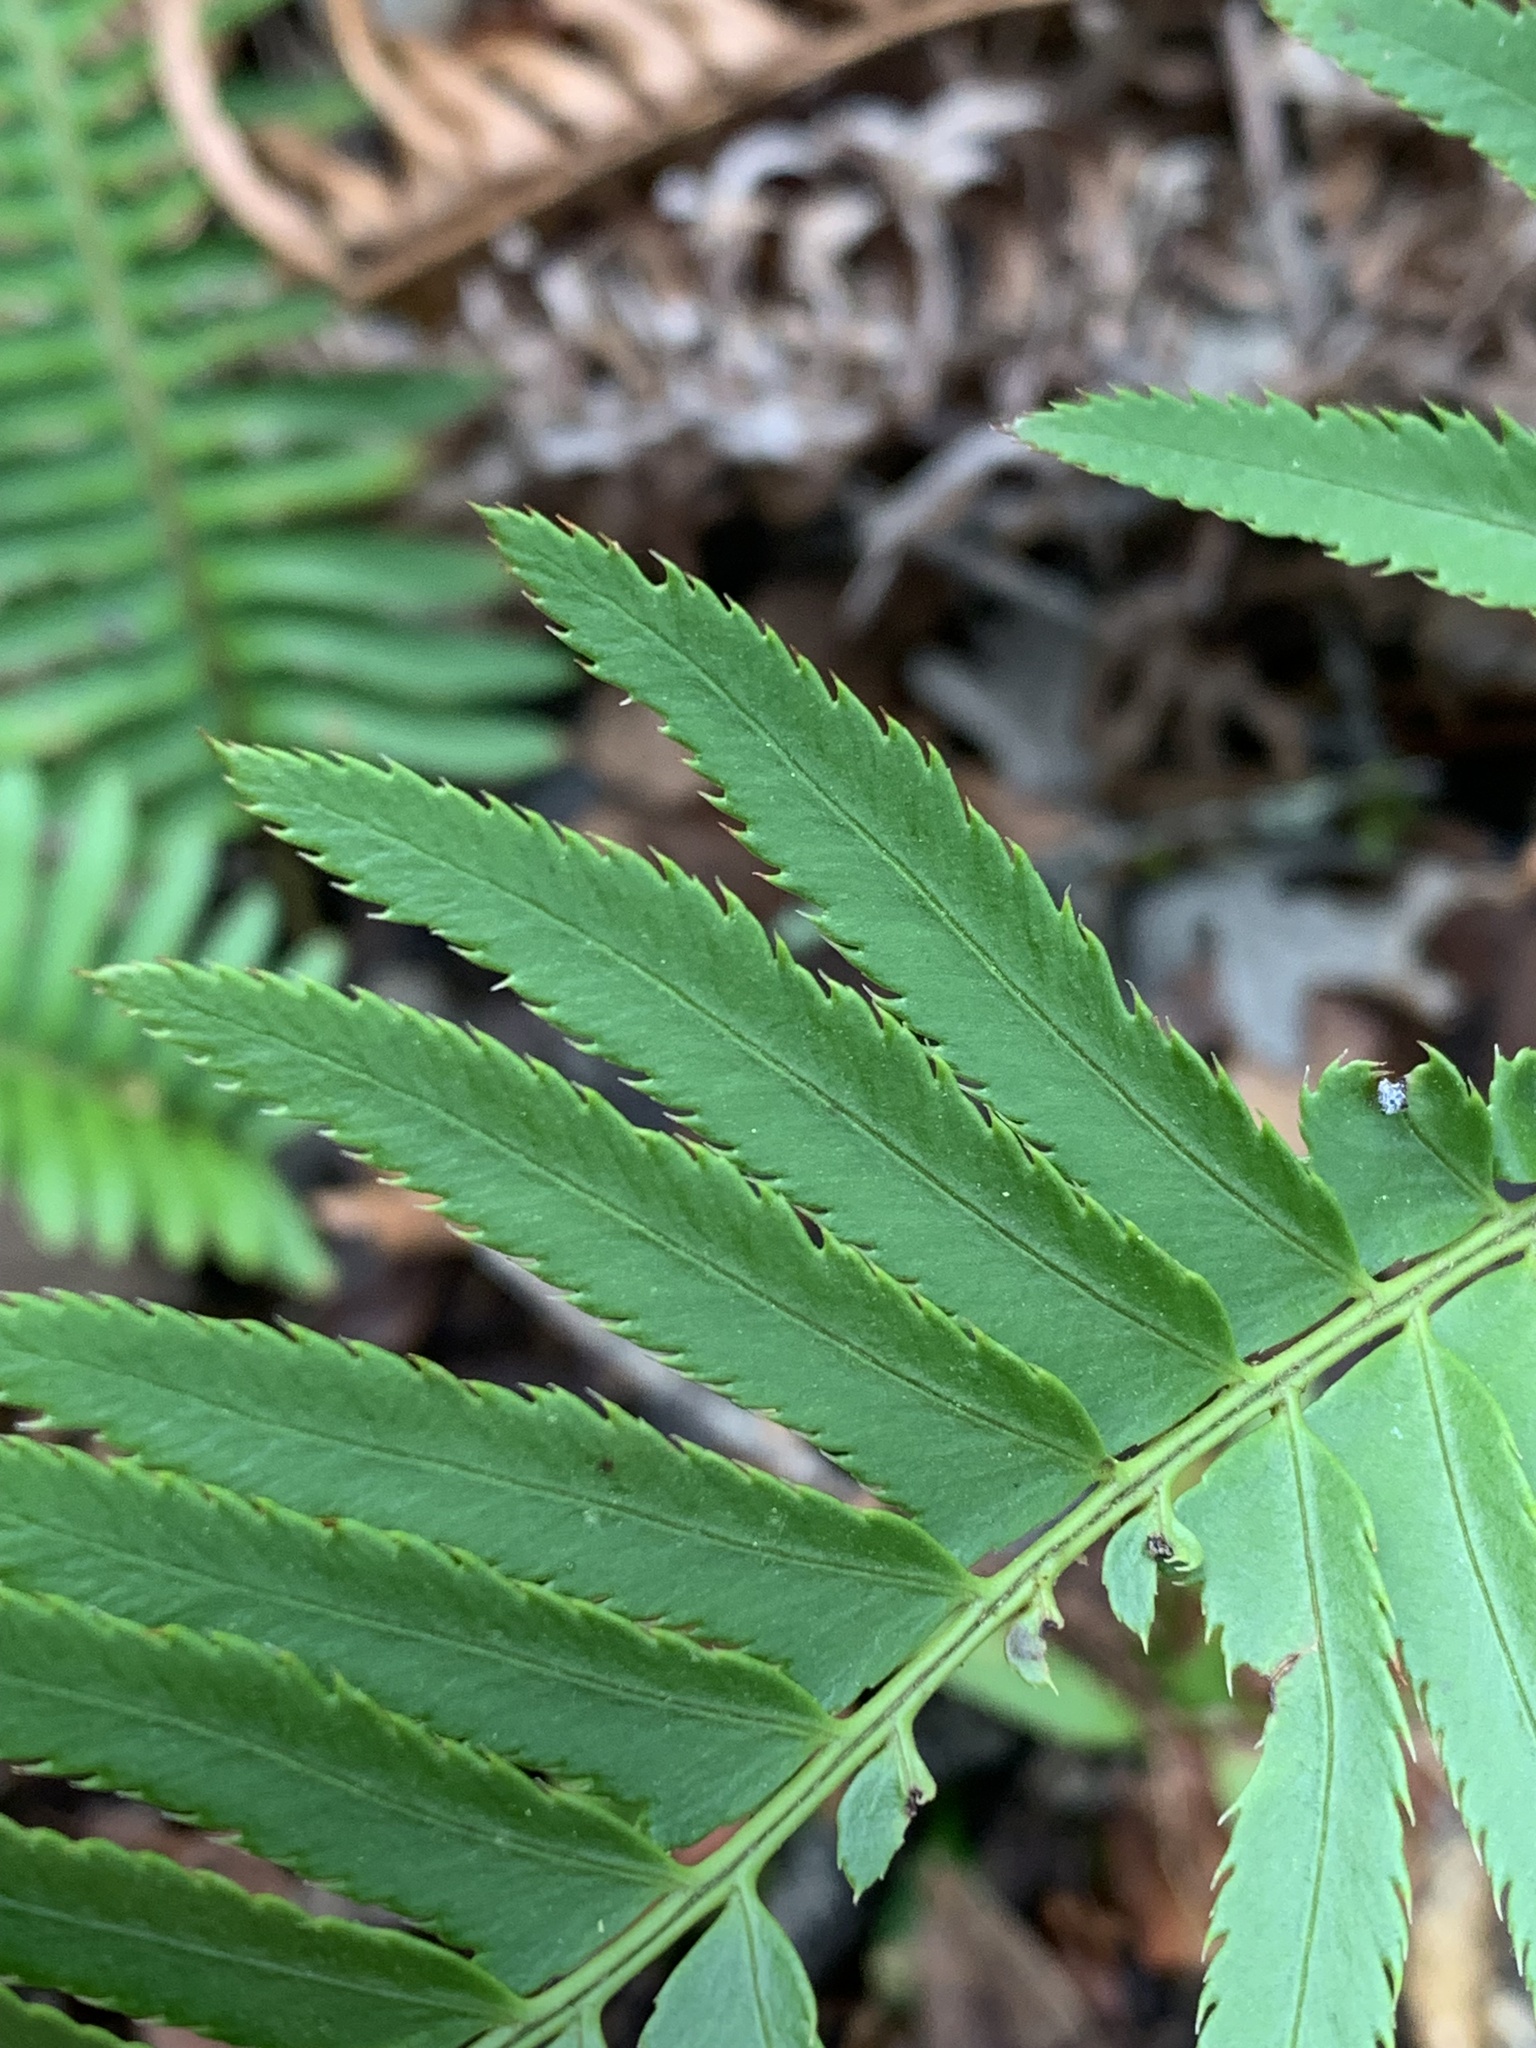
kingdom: Plantae
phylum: Tracheophyta
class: Polypodiopsida
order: Polypodiales
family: Dryopteridaceae
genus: Polystichum
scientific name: Polystichum munitum
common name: Western sword-fern
